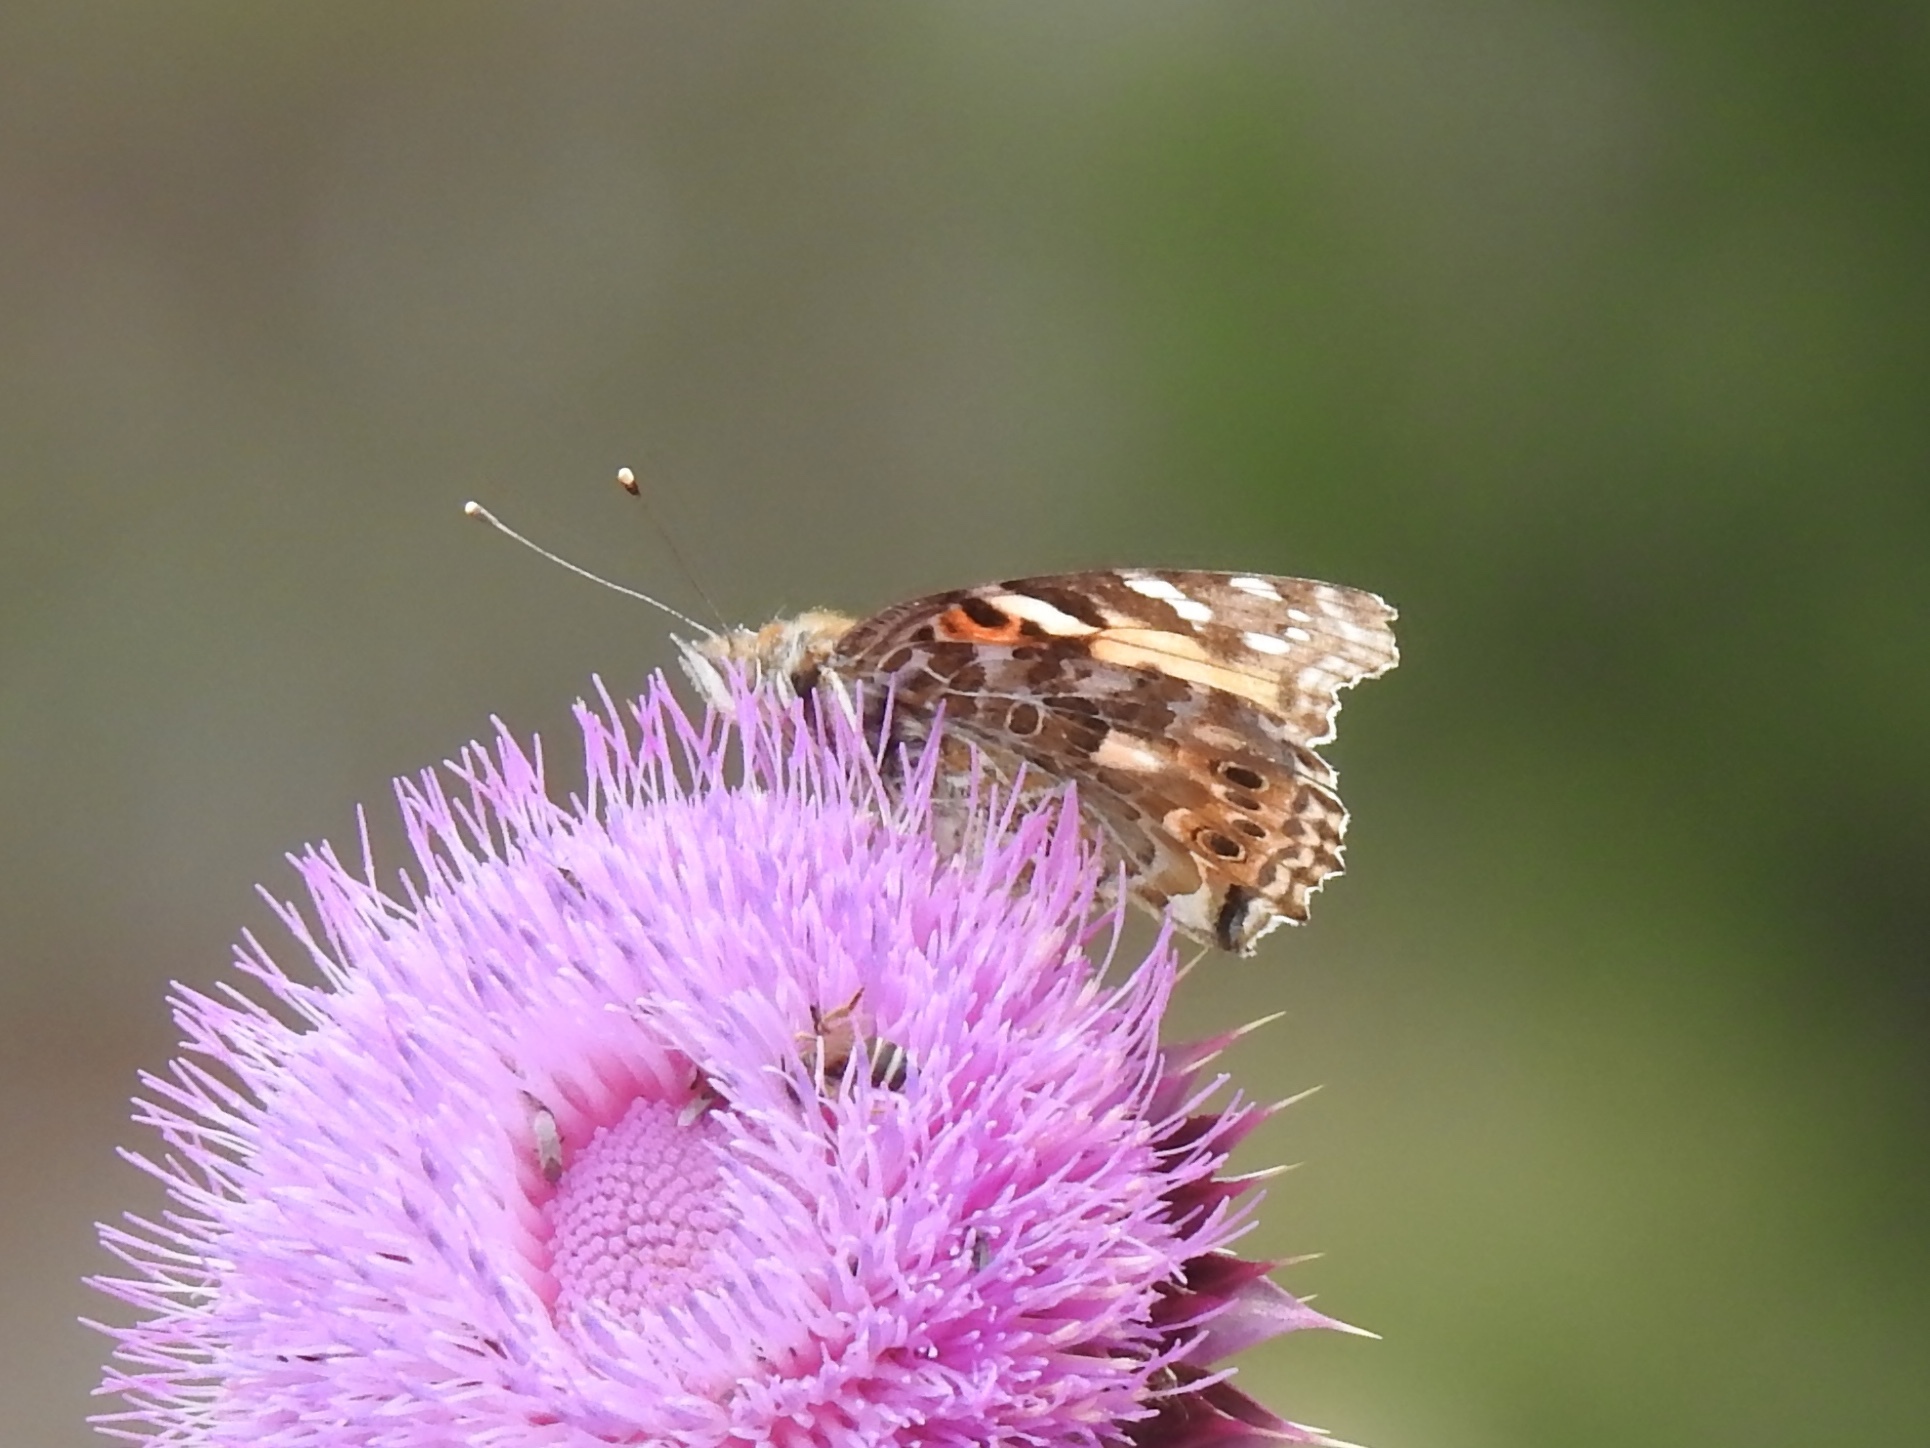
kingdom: Animalia
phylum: Arthropoda
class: Insecta
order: Lepidoptera
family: Nymphalidae
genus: Vanessa
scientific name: Vanessa cardui
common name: Painted lady
